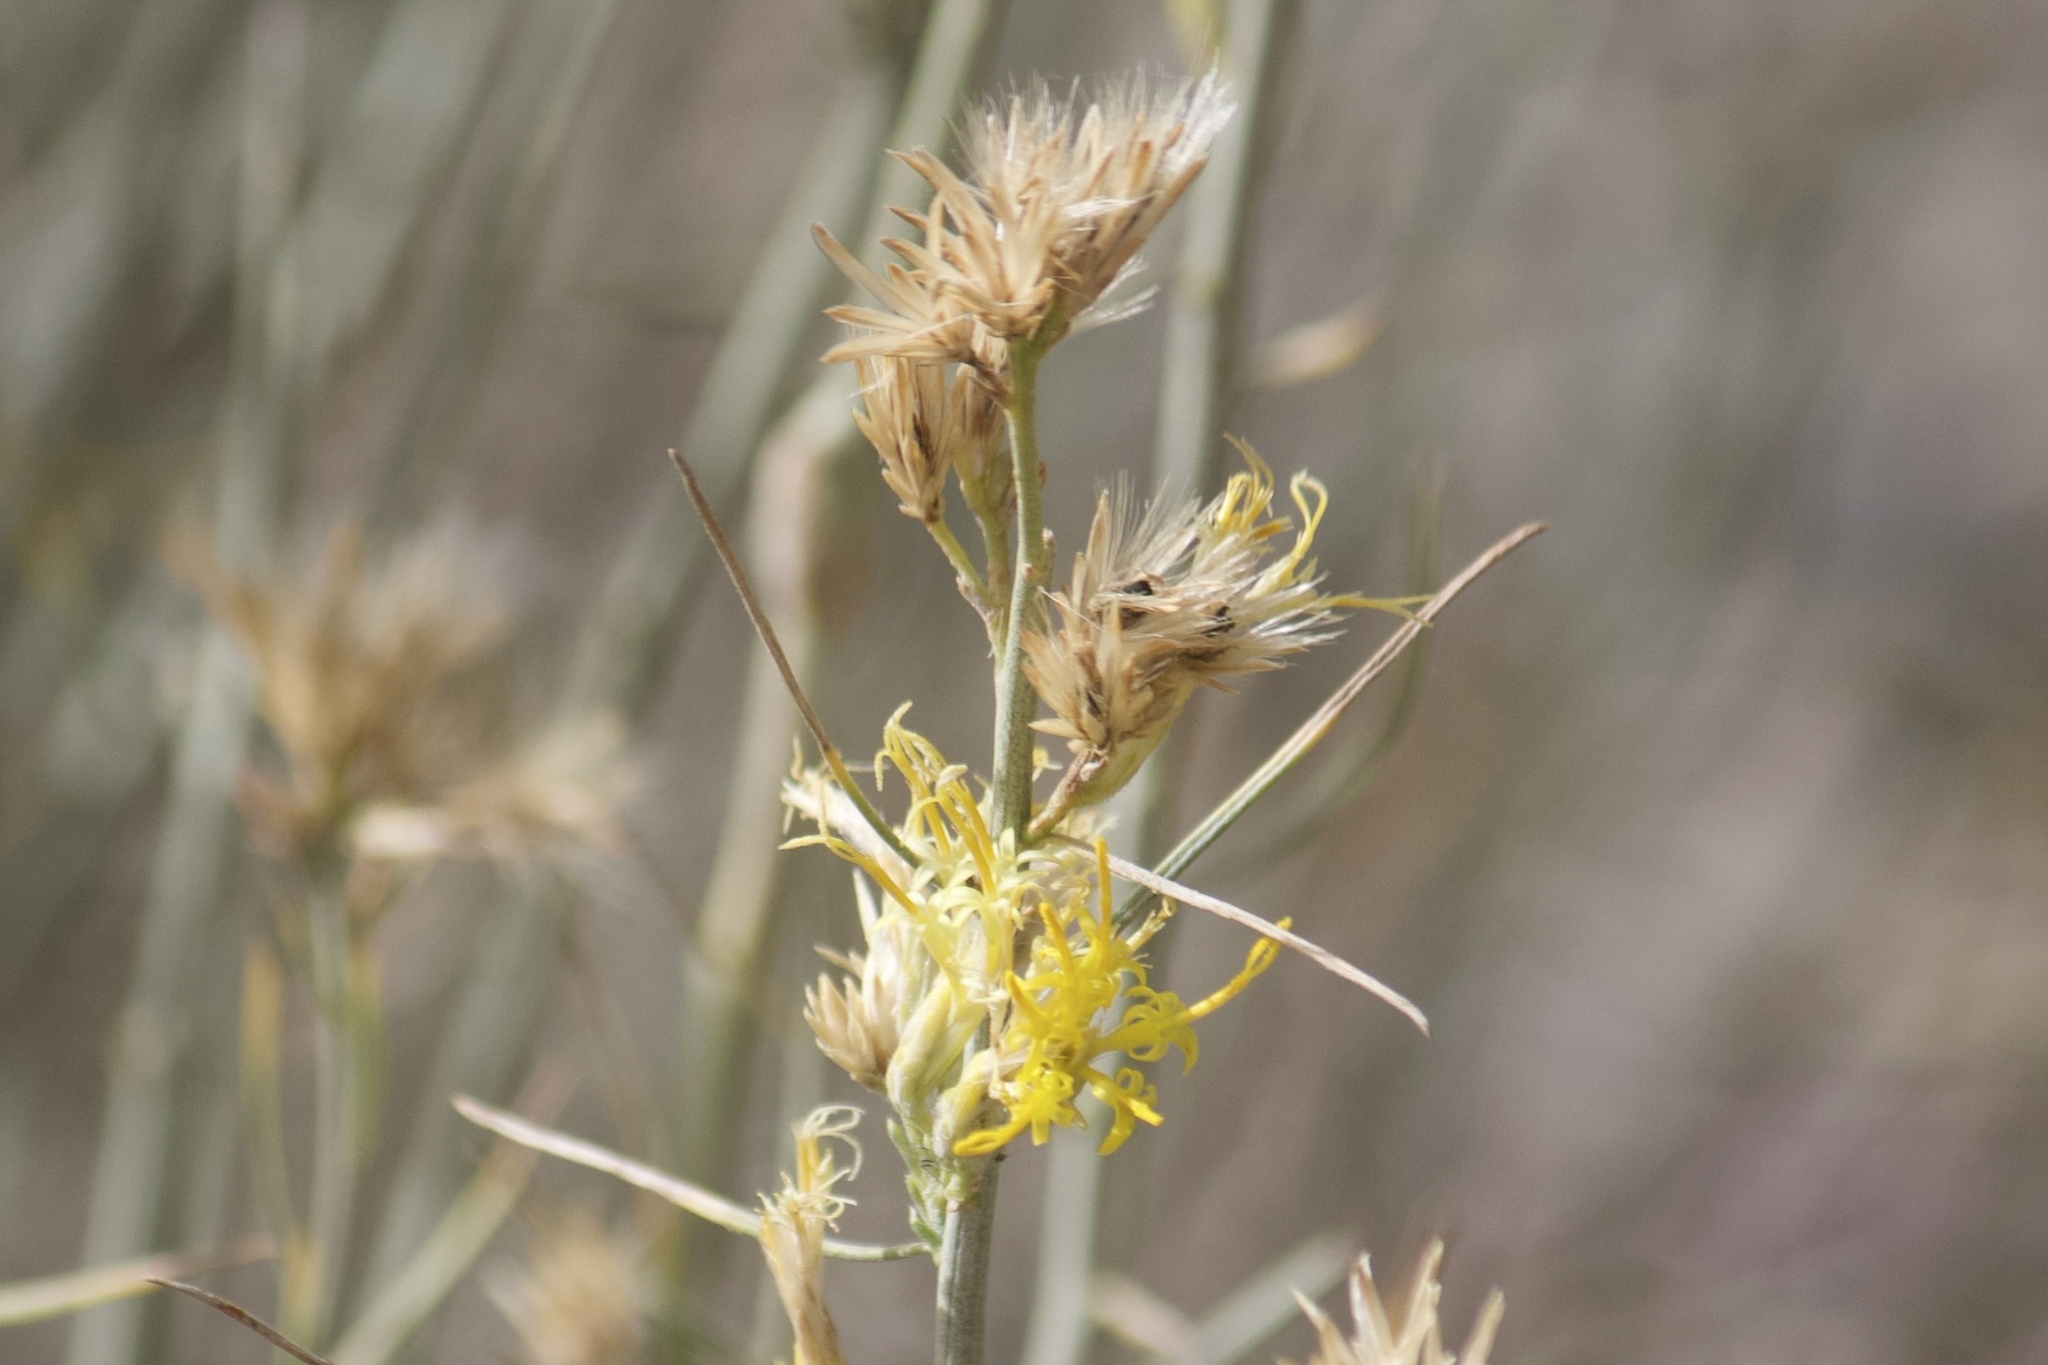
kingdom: Plantae
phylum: Tracheophyta
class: Magnoliopsida
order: Asterales
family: Asteraceae
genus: Ericameria
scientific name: Ericameria nauseosa
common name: Rubber rabbitbrush
